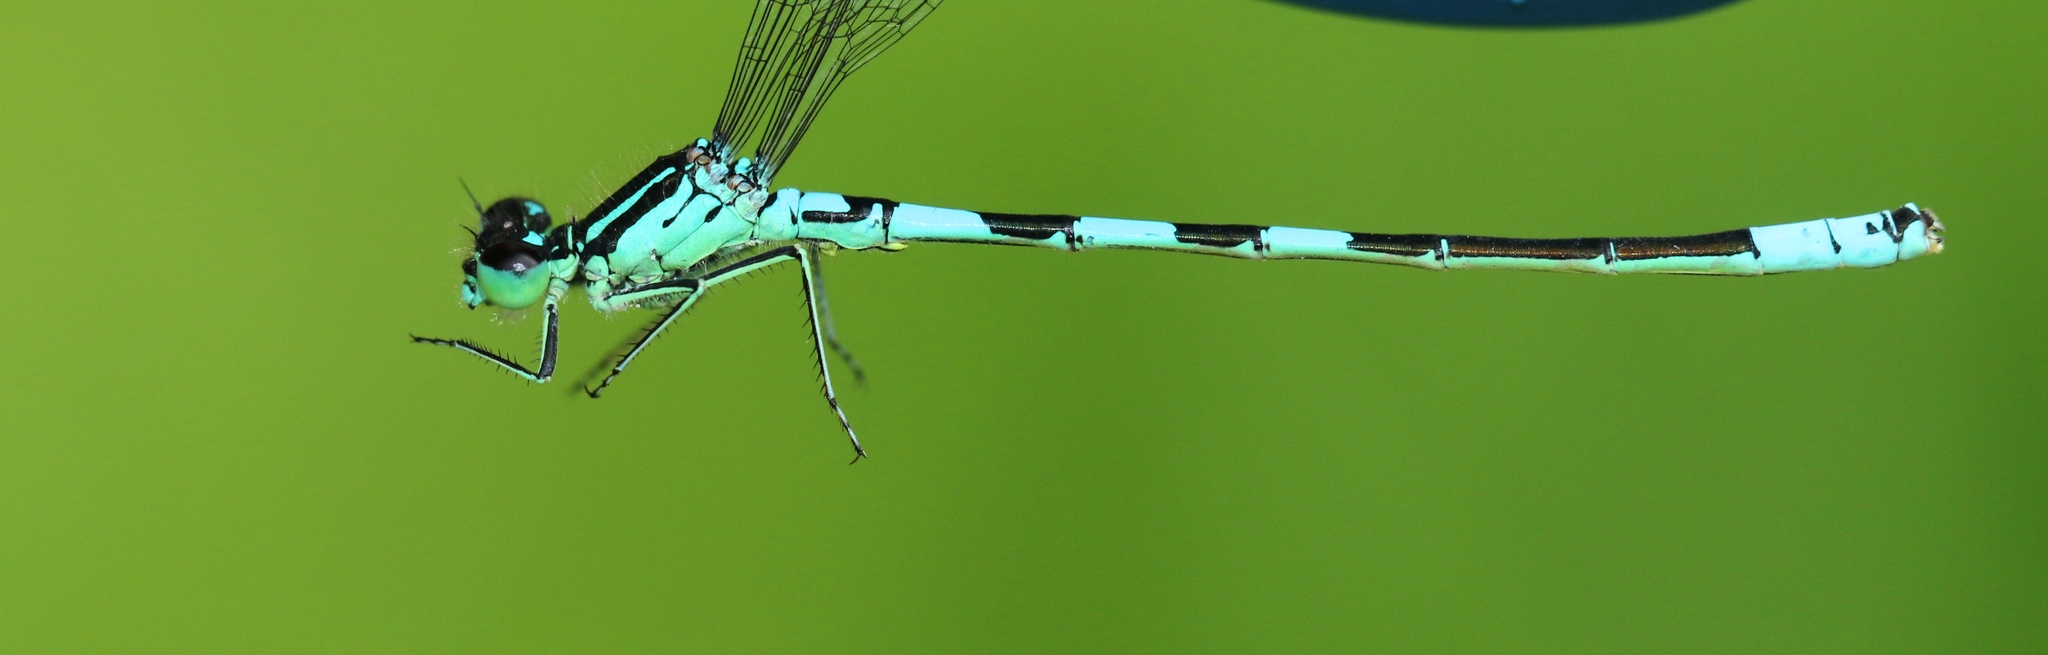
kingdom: Animalia
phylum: Arthropoda
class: Insecta
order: Odonata
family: Coenagrionidae
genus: Coenagrion
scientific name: Coenagrion resolutum
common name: Taiga bluet
